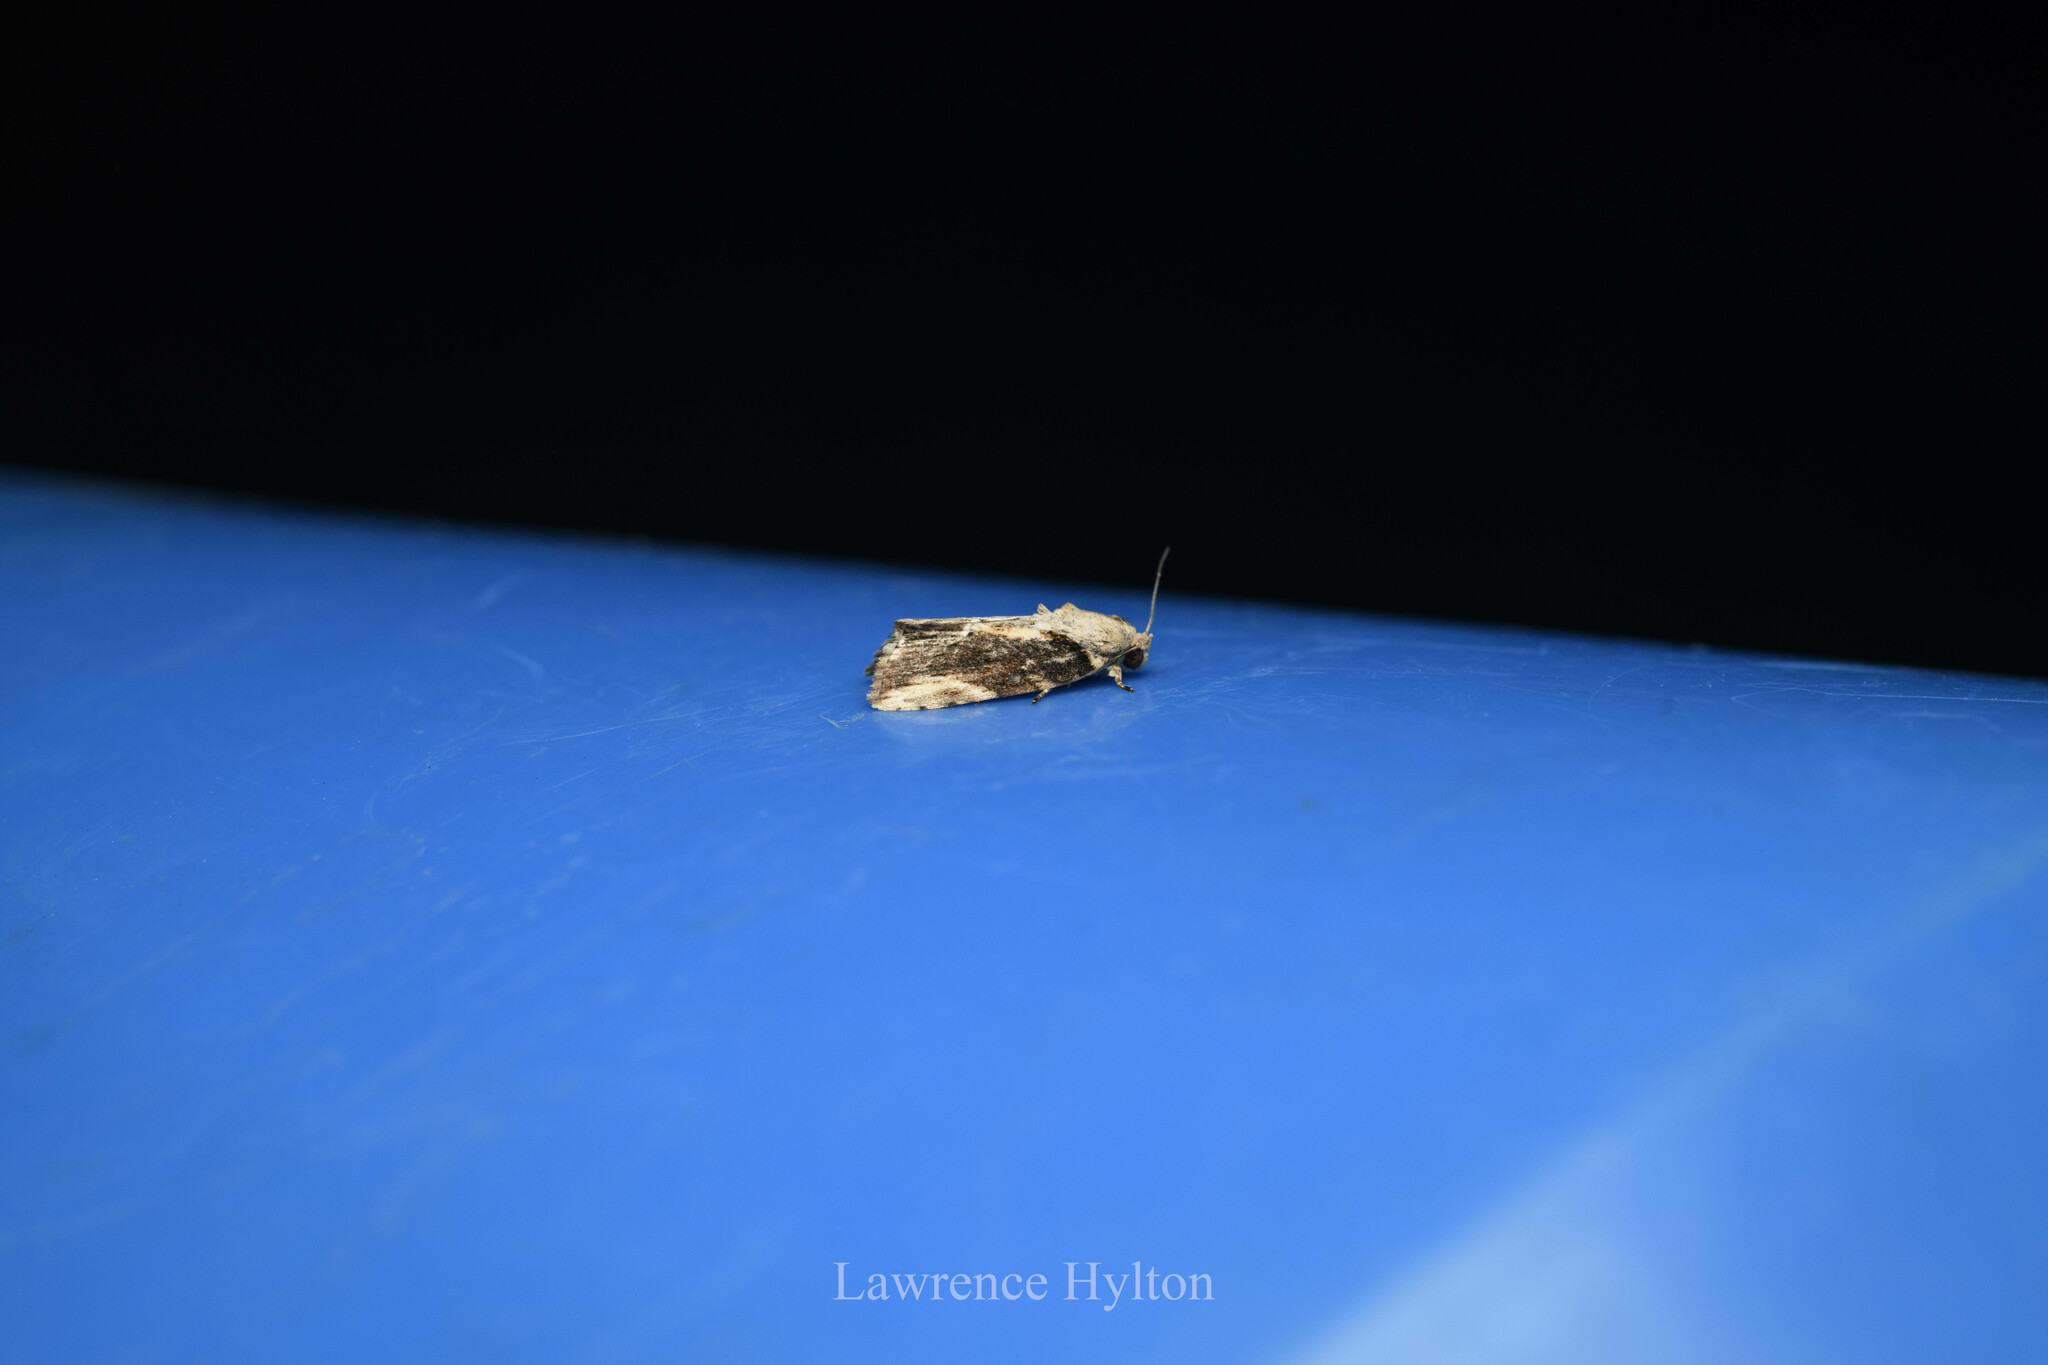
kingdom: Animalia
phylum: Arthropoda
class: Insecta
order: Lepidoptera
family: Nolidae
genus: Etanna
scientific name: Etanna breviuscula
